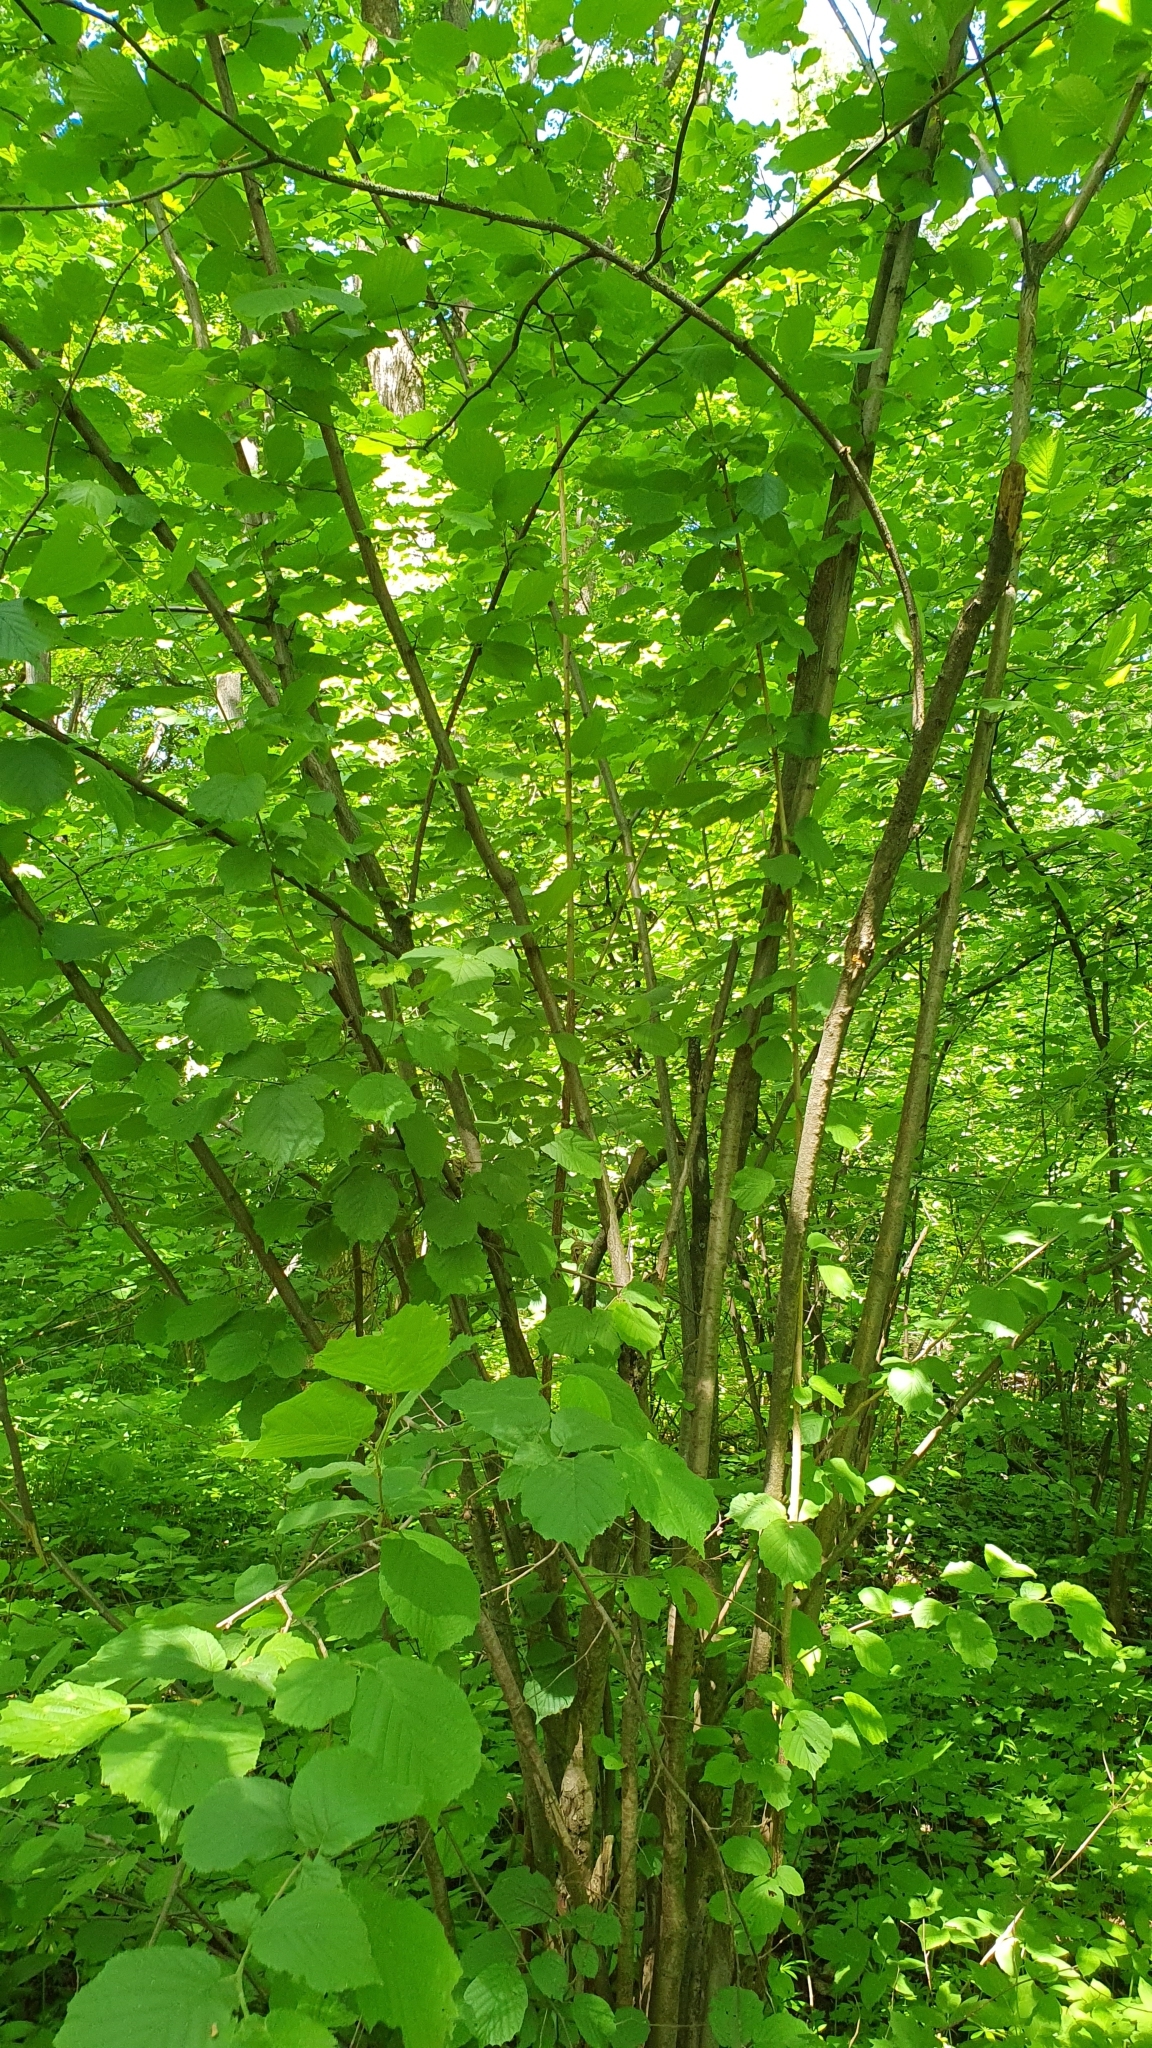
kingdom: Plantae
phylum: Tracheophyta
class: Magnoliopsida
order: Fagales
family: Betulaceae
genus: Corylus
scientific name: Corylus avellana
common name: European hazel
